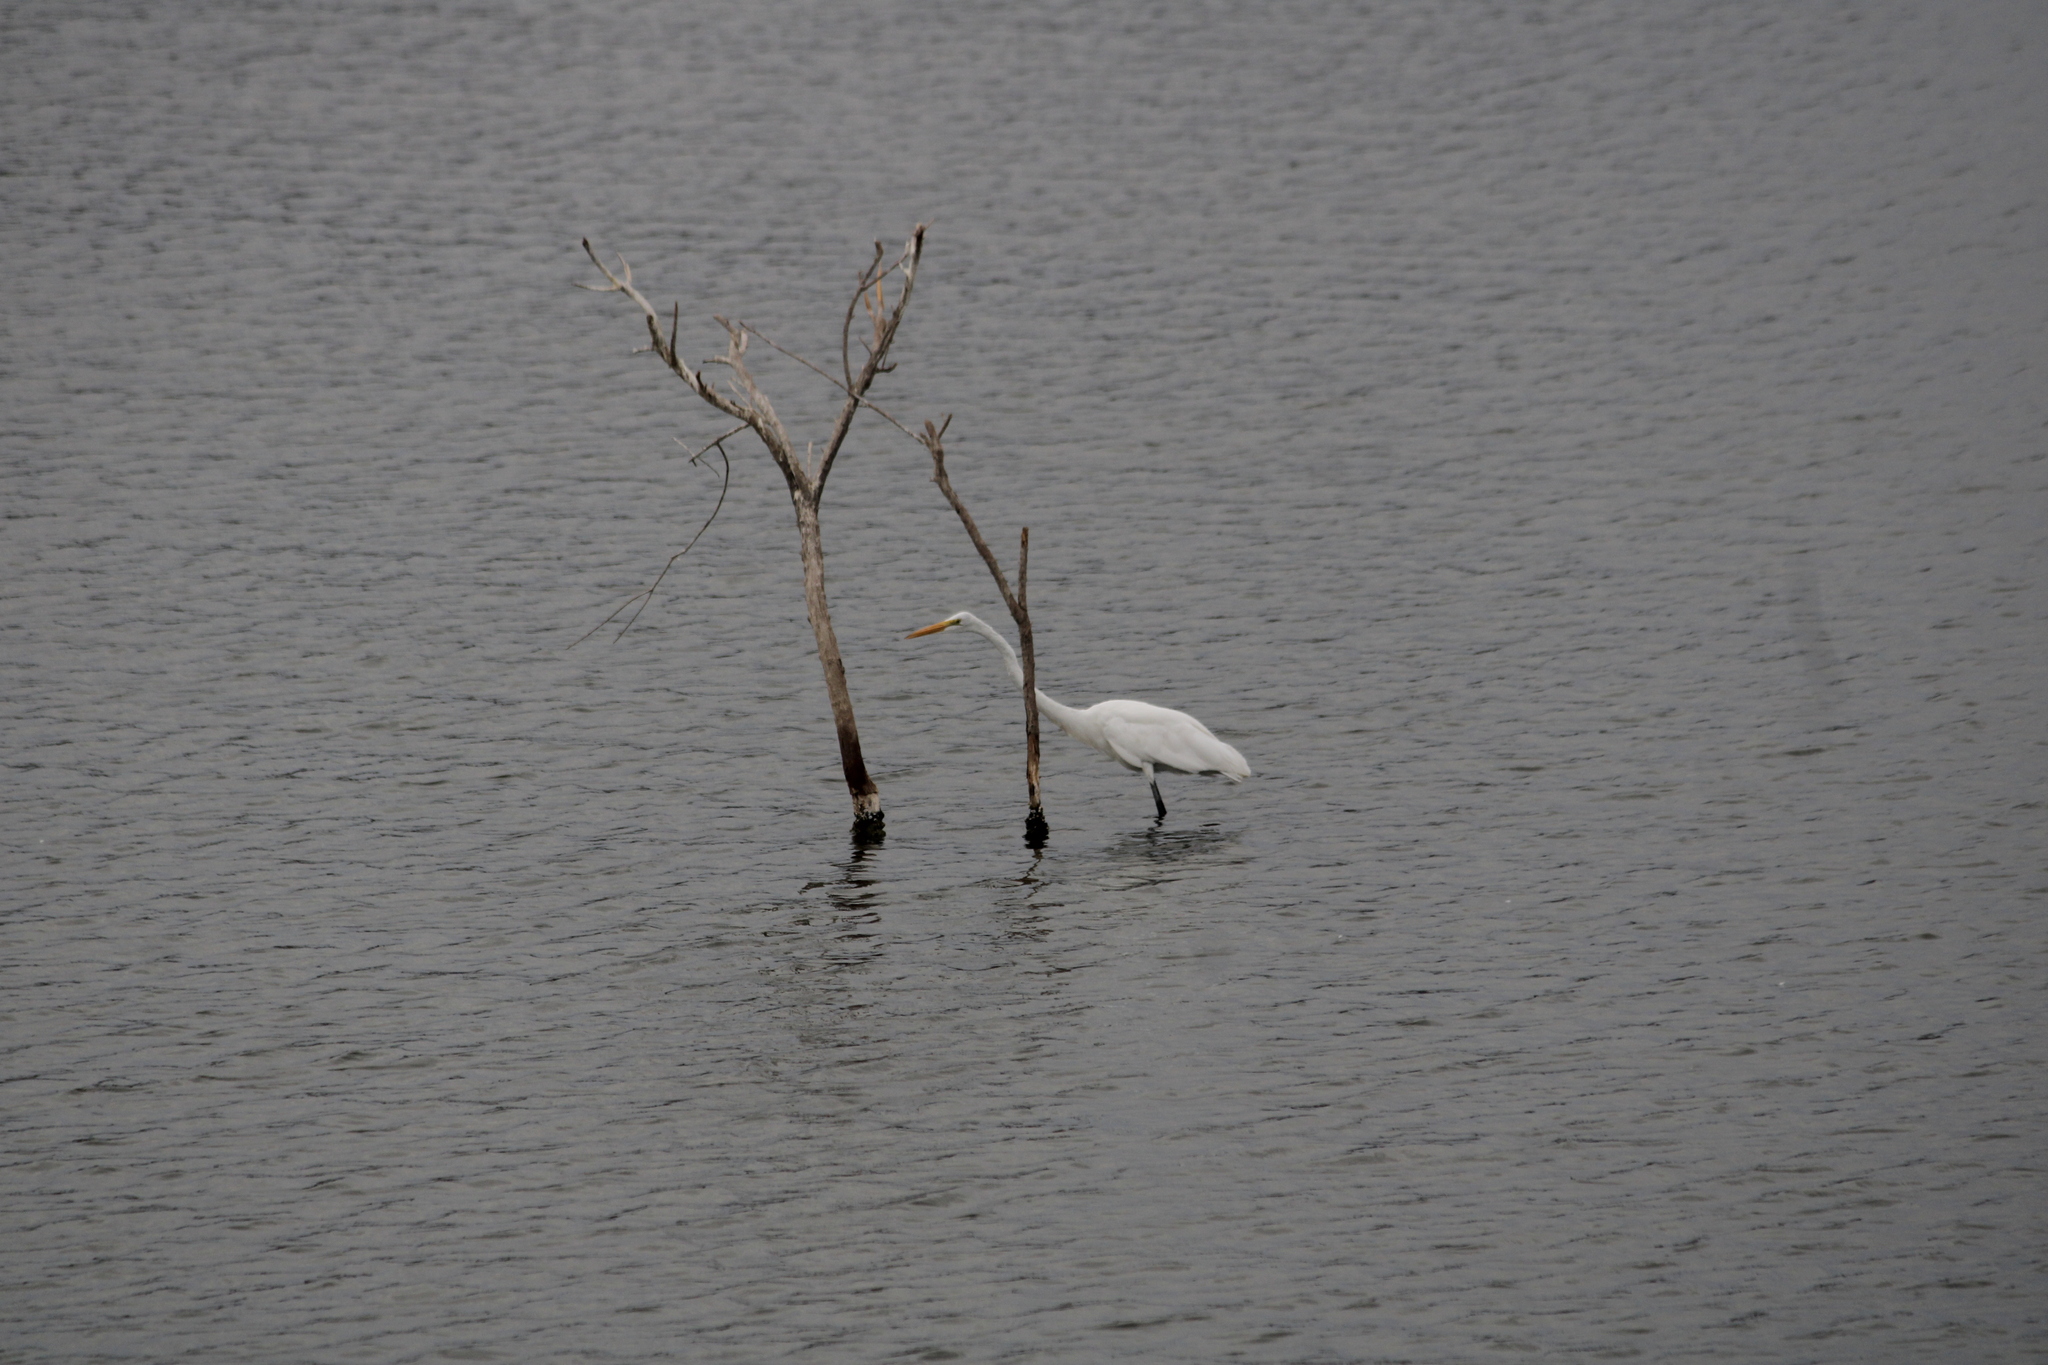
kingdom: Animalia
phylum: Chordata
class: Aves
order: Pelecaniformes
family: Ardeidae
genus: Ardea
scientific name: Ardea alba
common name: Great egret
